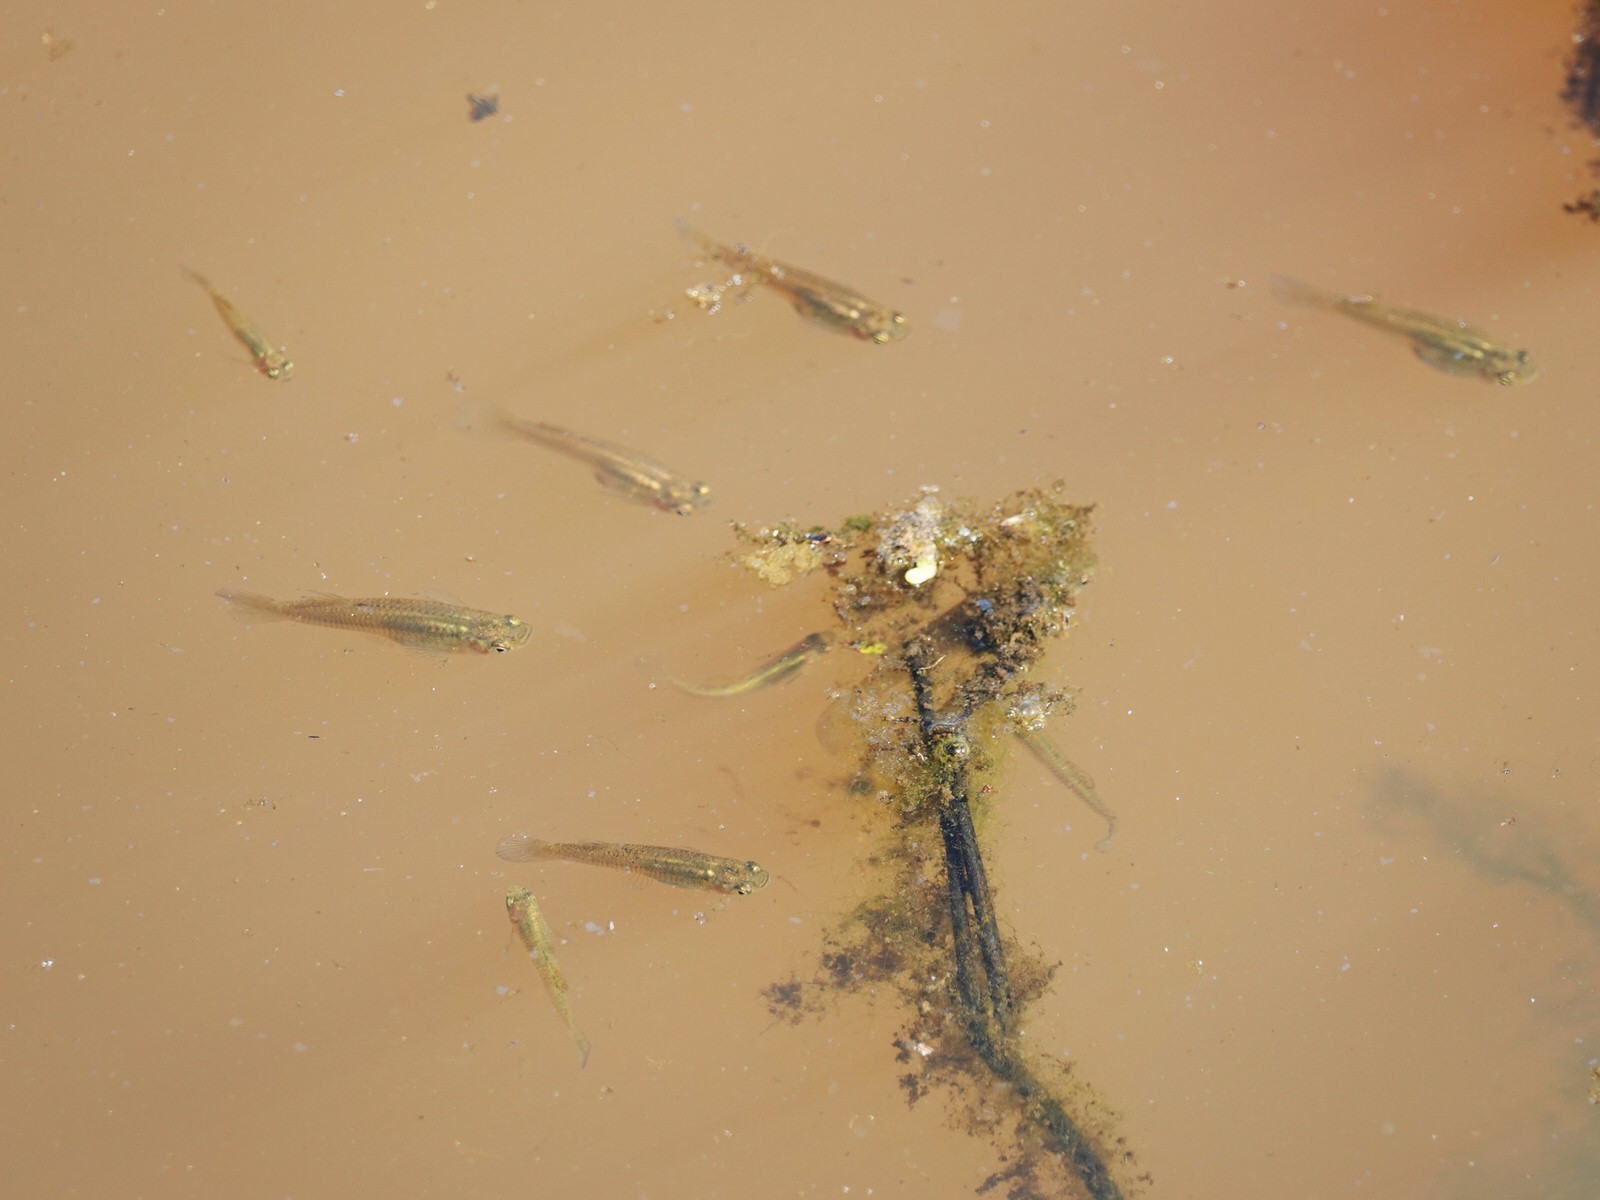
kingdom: Animalia
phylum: Chordata
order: Cyprinodontiformes
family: Poeciliidae
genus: Gambusia
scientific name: Gambusia affinis
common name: Mosquitofish
